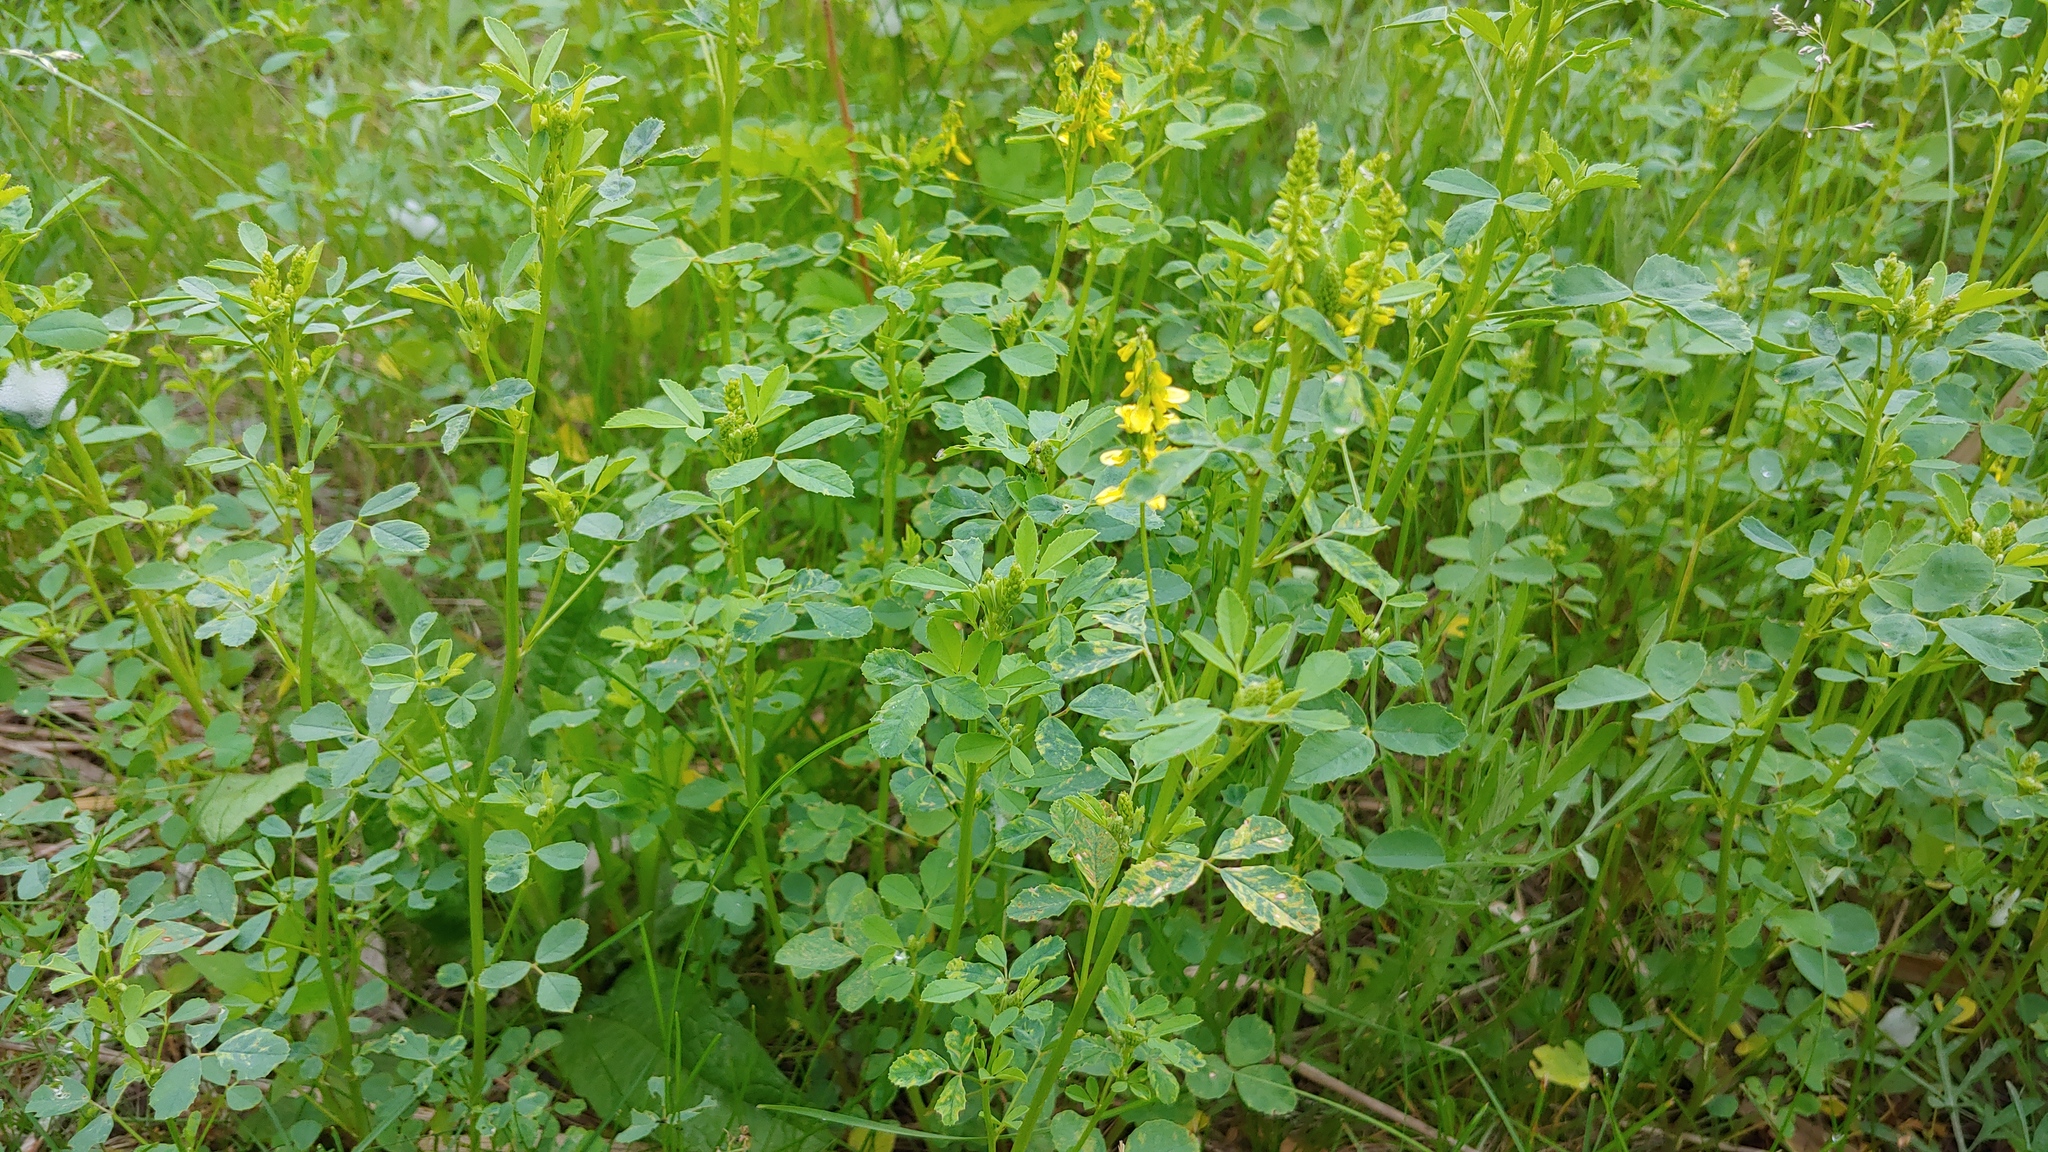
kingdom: Plantae
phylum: Tracheophyta
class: Magnoliopsida
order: Fabales
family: Fabaceae
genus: Melilotus
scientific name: Melilotus officinalis
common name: Sweetclover
